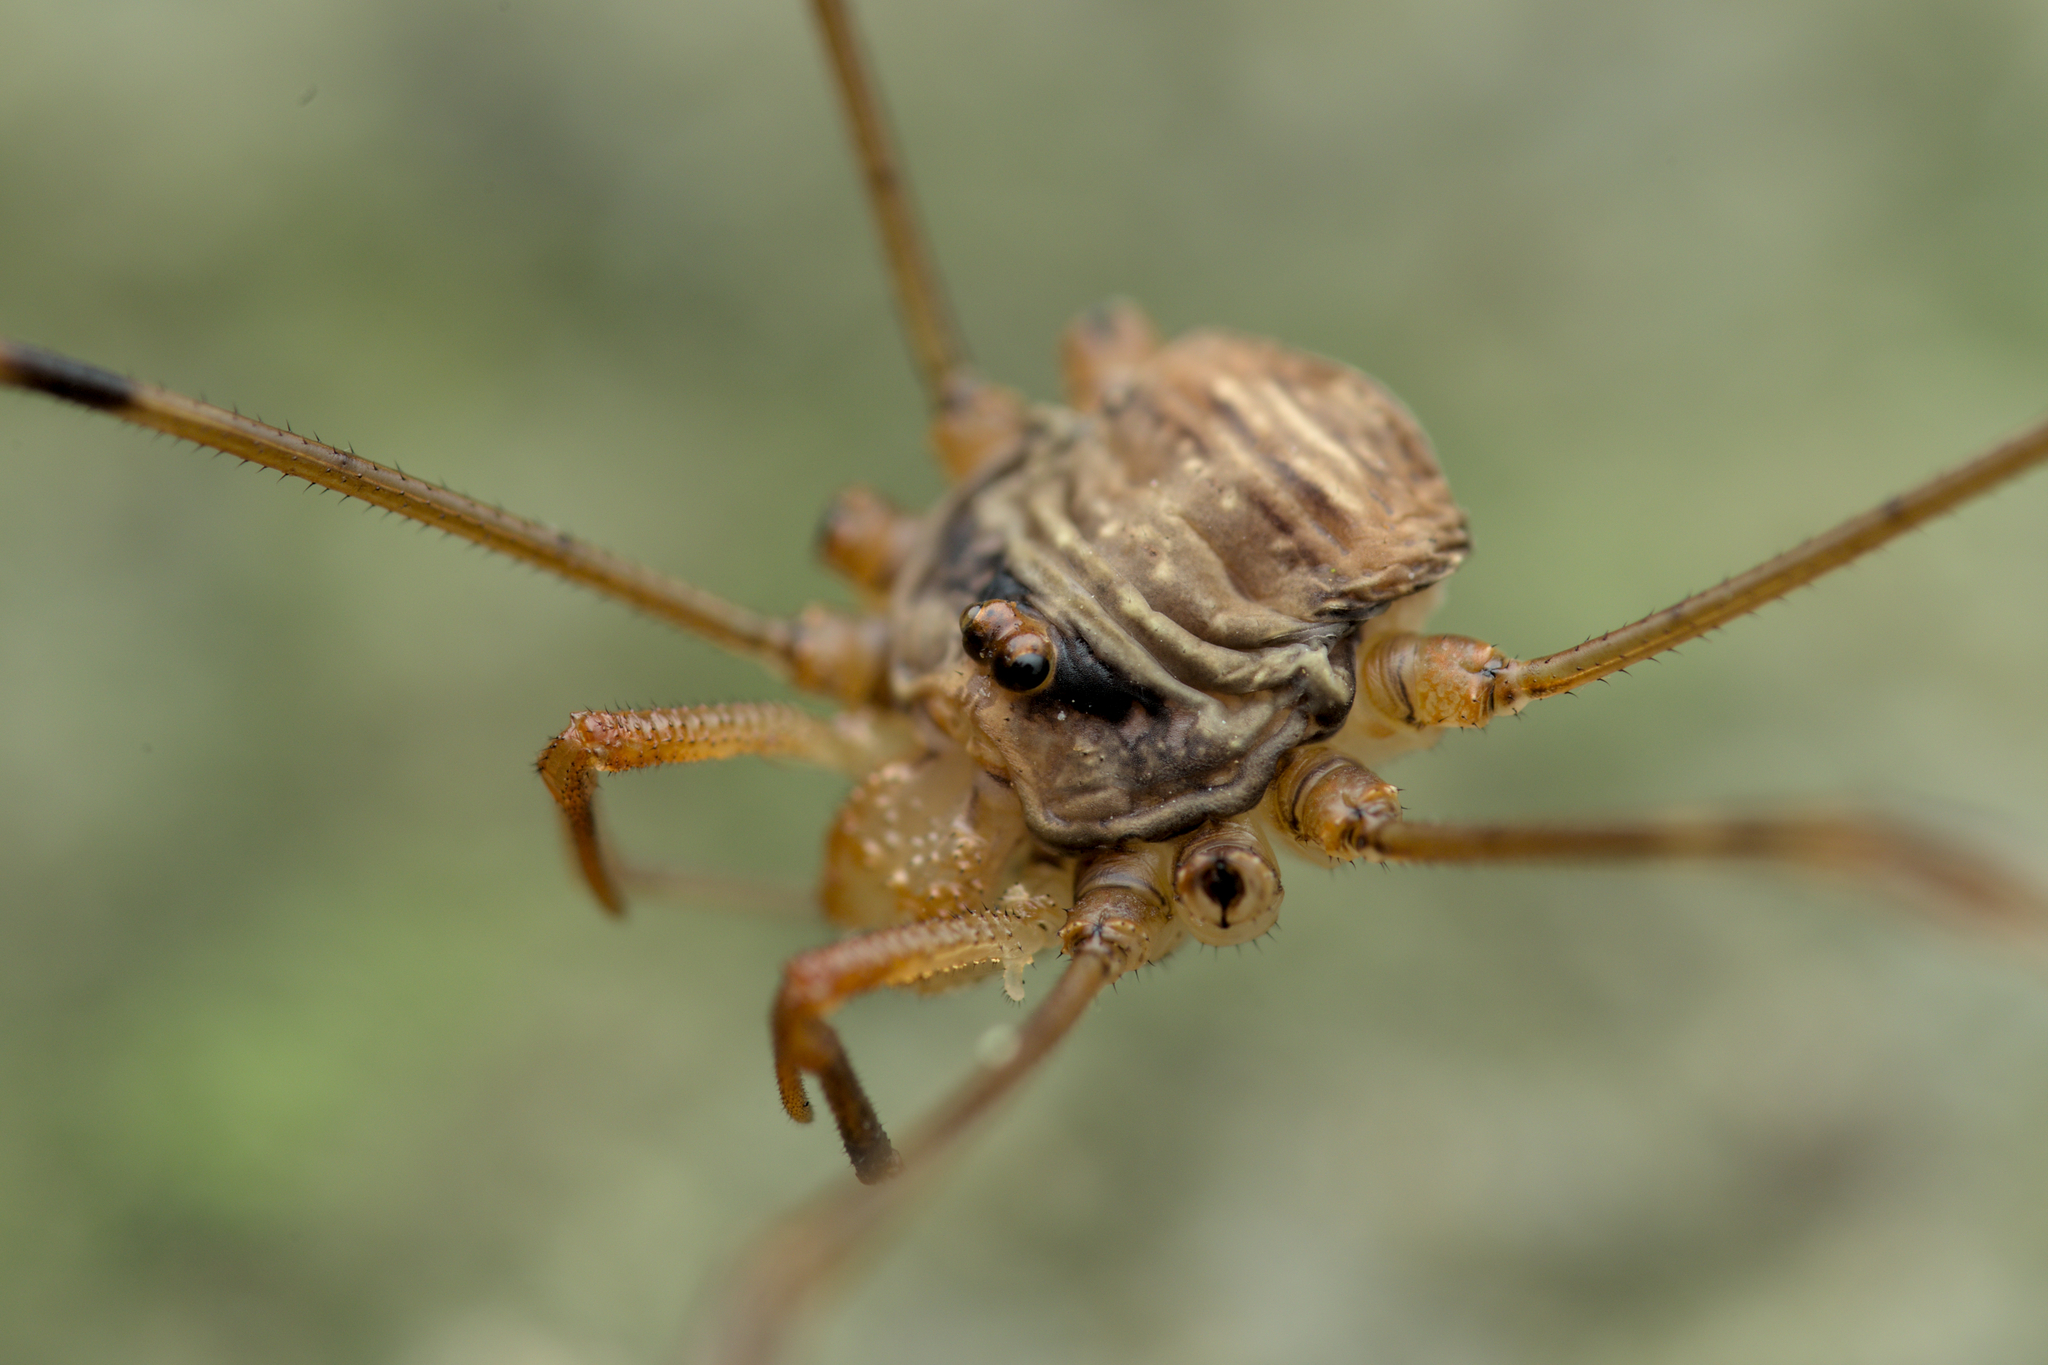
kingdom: Animalia
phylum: Arthropoda
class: Arachnida
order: Opiliones
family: Phalangiidae
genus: Dicranopalpus
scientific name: Dicranopalpus ramosus
